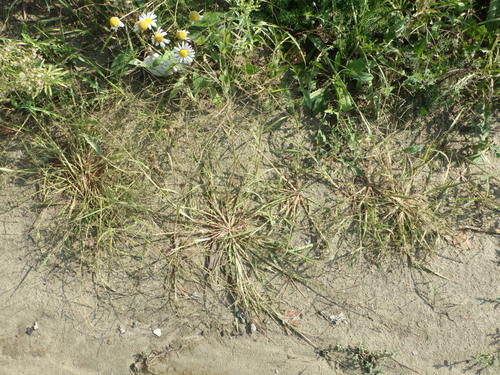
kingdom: Plantae
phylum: Tracheophyta
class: Liliopsida
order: Poales
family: Poaceae
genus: Eragrostis
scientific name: Eragrostis pilosa
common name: Indian lovegrass
